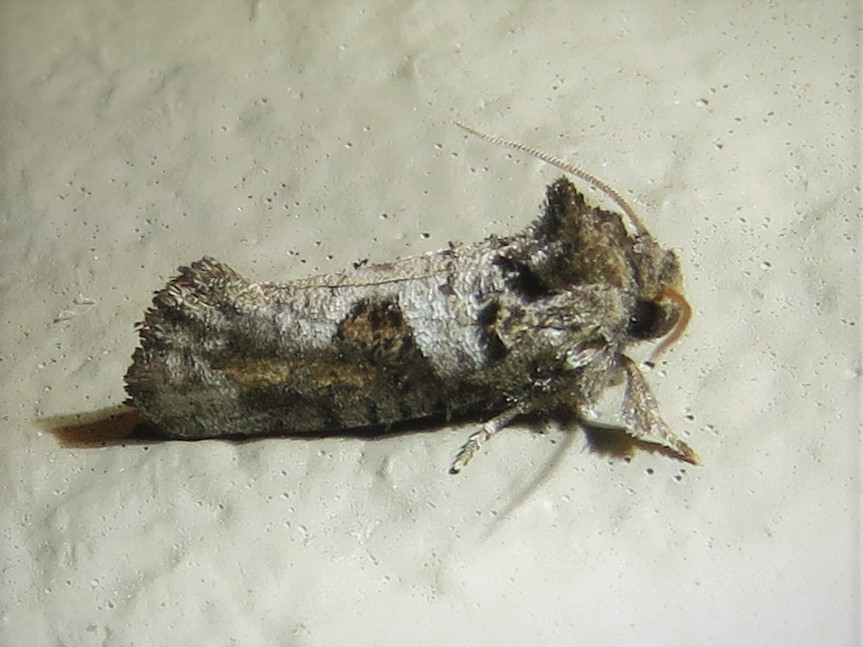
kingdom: Animalia
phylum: Arthropoda
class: Insecta
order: Lepidoptera
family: Tineidae
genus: Acrolophus
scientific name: Acrolophus piger
